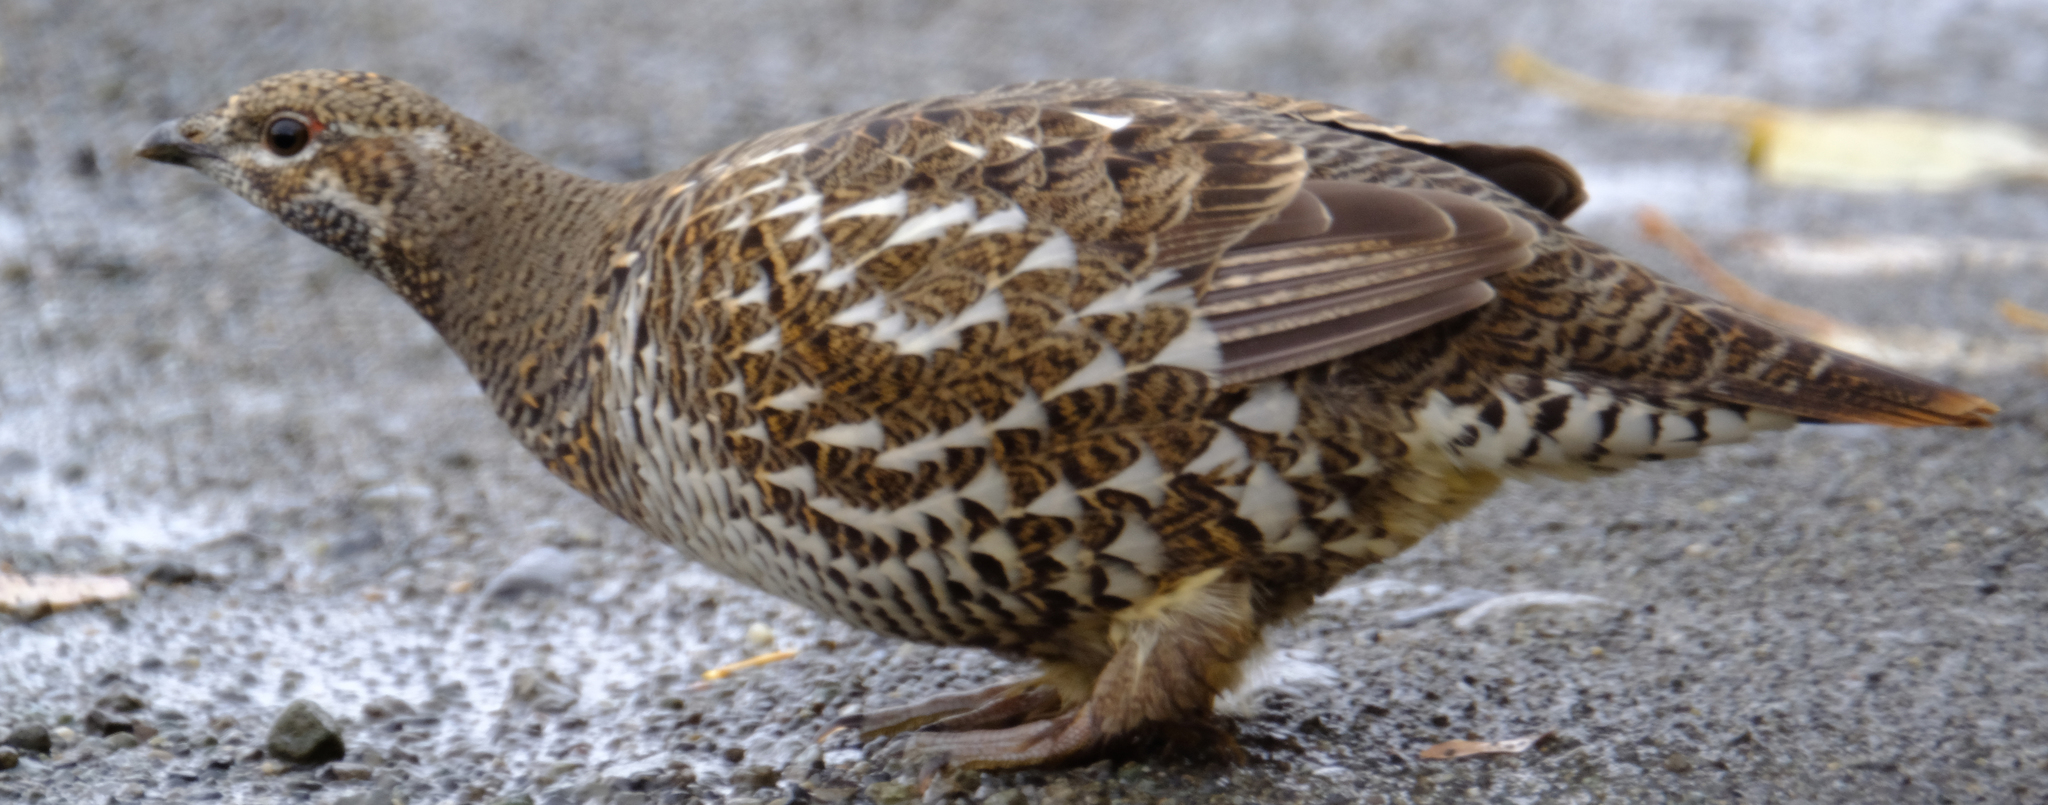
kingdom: Animalia
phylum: Chordata
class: Aves
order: Galliformes
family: Phasianidae
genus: Canachites
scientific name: Canachites canadensis
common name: Spruce grouse
